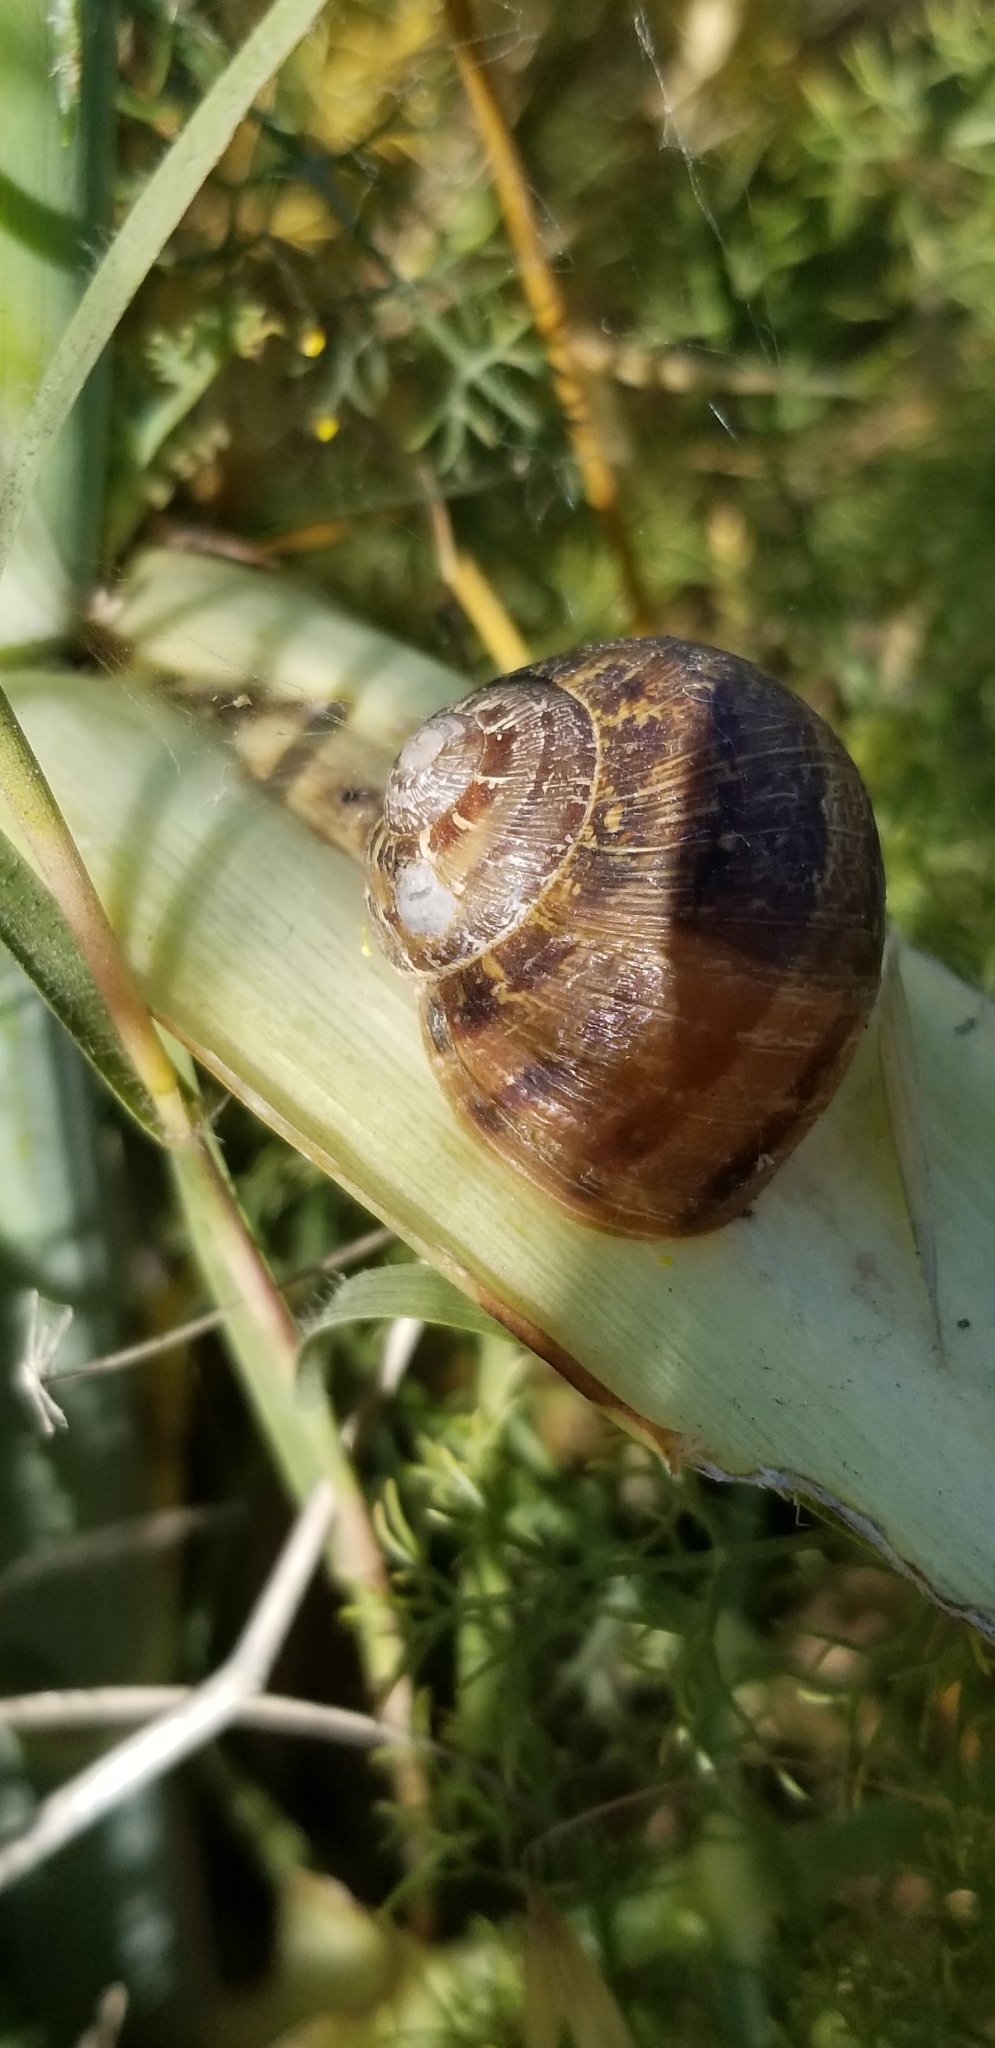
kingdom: Animalia
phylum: Mollusca
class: Gastropoda
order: Stylommatophora
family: Helicidae
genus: Cornu
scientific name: Cornu aspersum
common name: Brown garden snail
